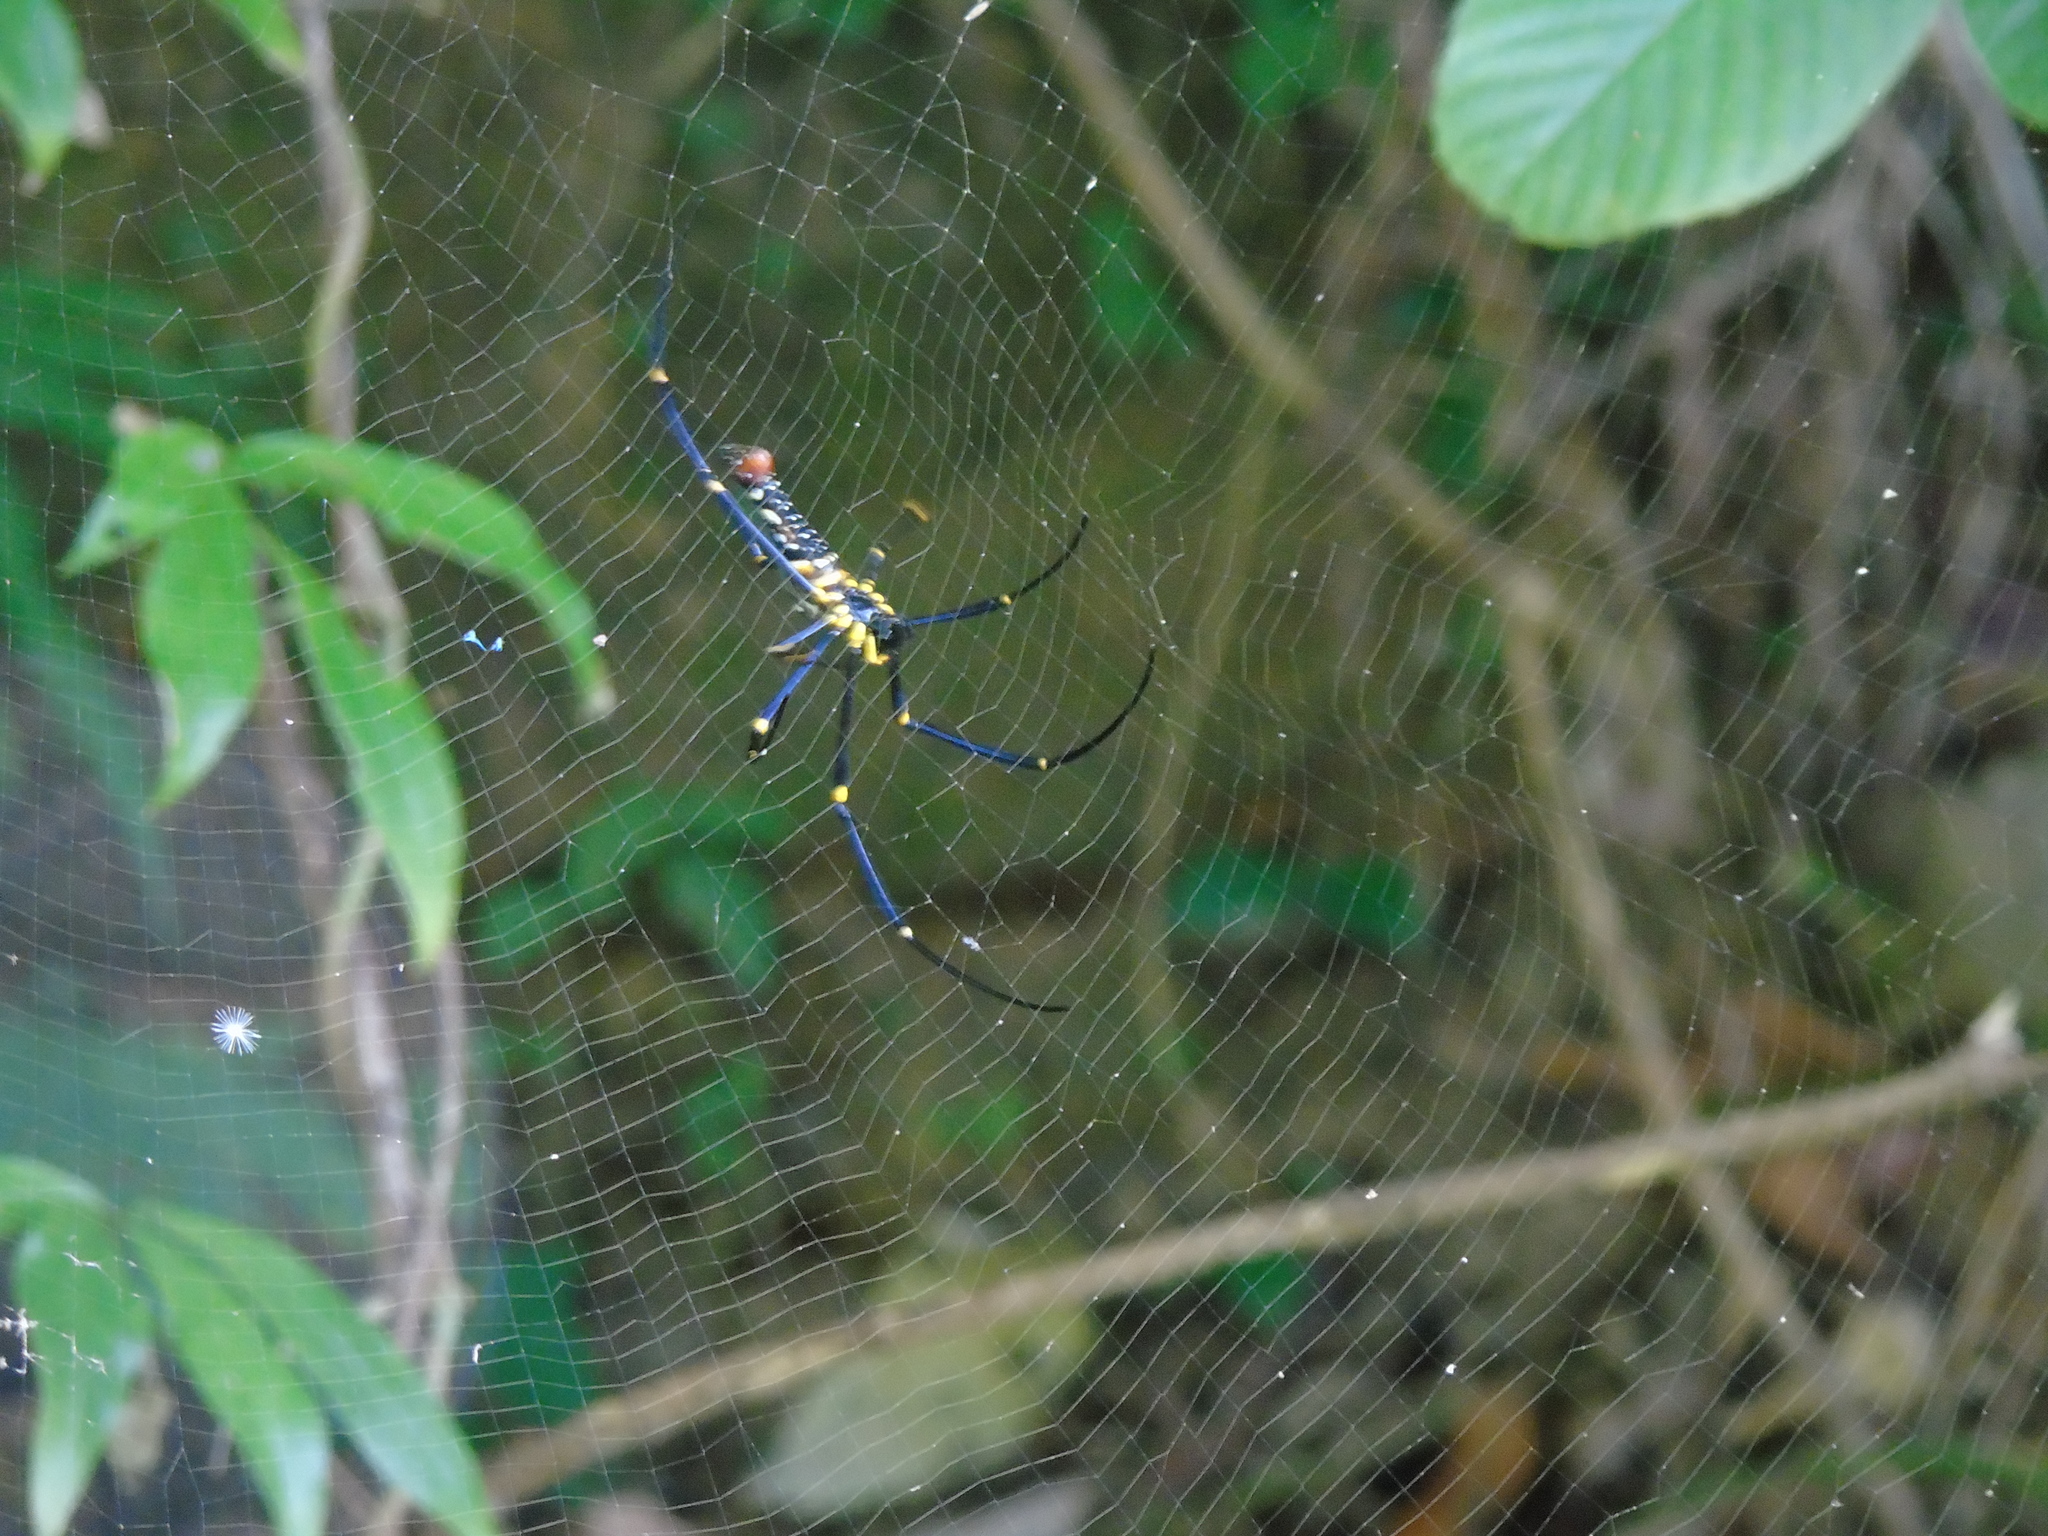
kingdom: Animalia
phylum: Arthropoda
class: Arachnida
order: Araneae
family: Araneidae
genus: Nephila
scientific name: Nephila pilipes
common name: Giant golden orb weaver
